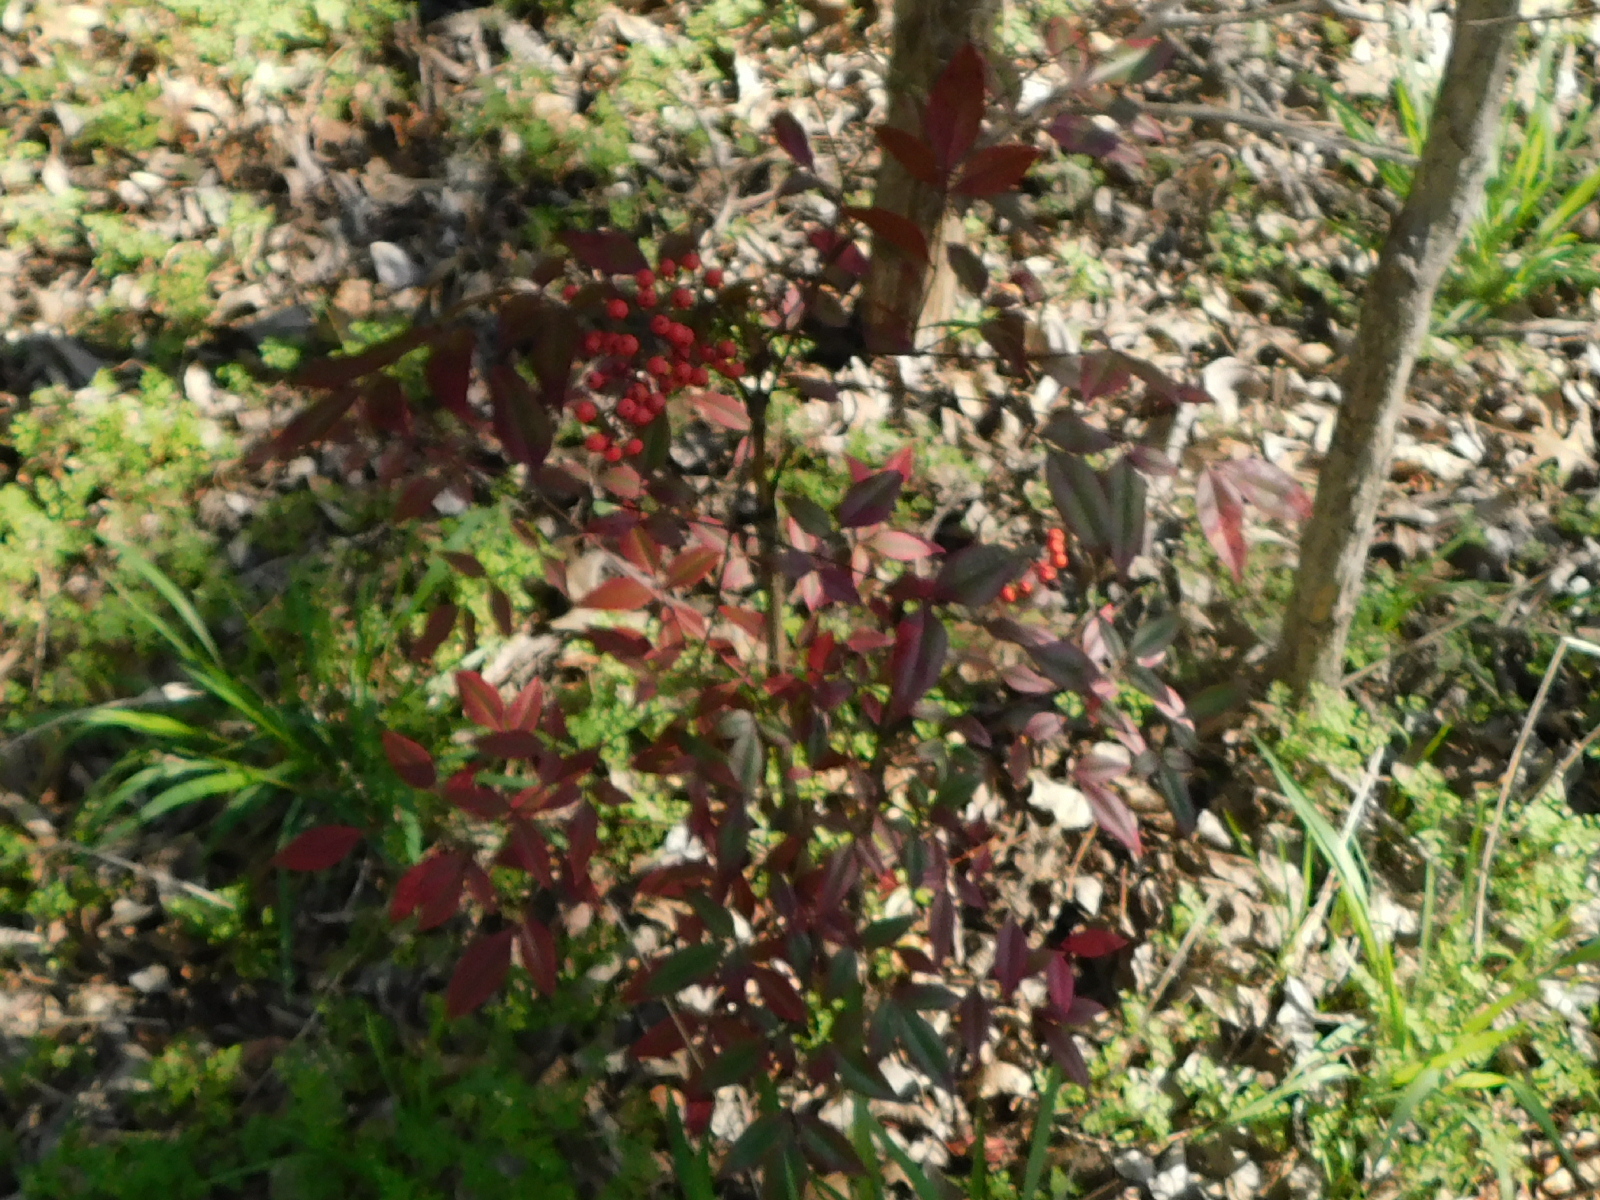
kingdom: Plantae
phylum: Tracheophyta
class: Magnoliopsida
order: Ranunculales
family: Berberidaceae
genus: Nandina
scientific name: Nandina domestica
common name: Sacred bamboo
